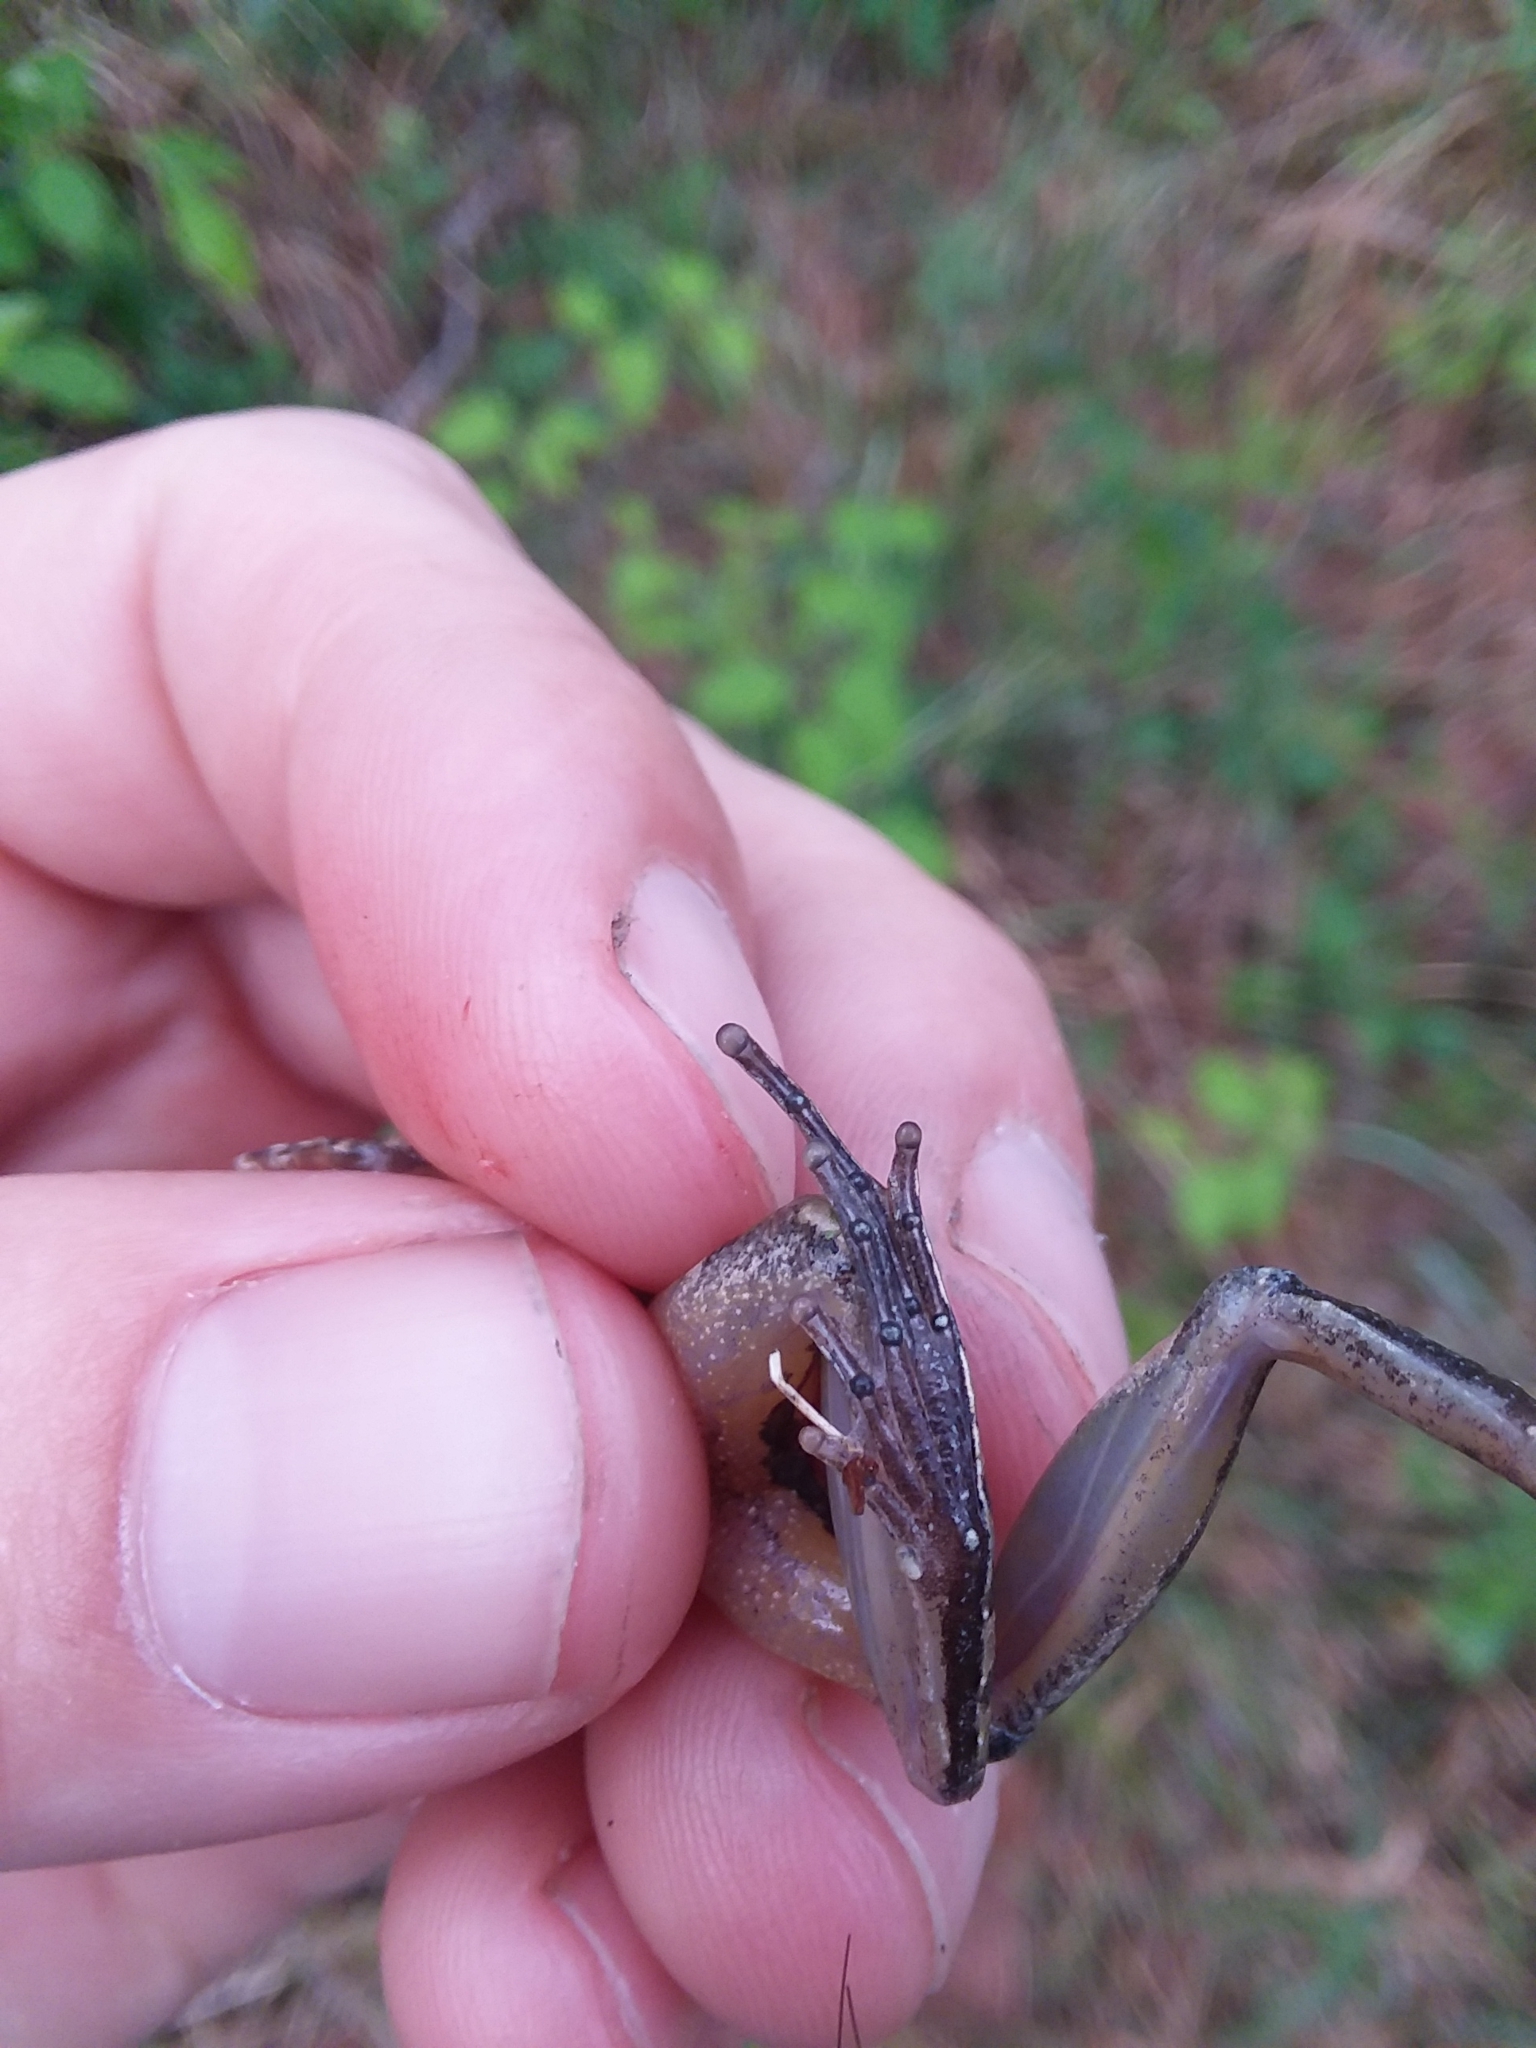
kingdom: Animalia
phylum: Chordata
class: Amphibia
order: Anura
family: Hylidae
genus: Acris
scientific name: Acris gryllus
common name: Southern cricket frog
